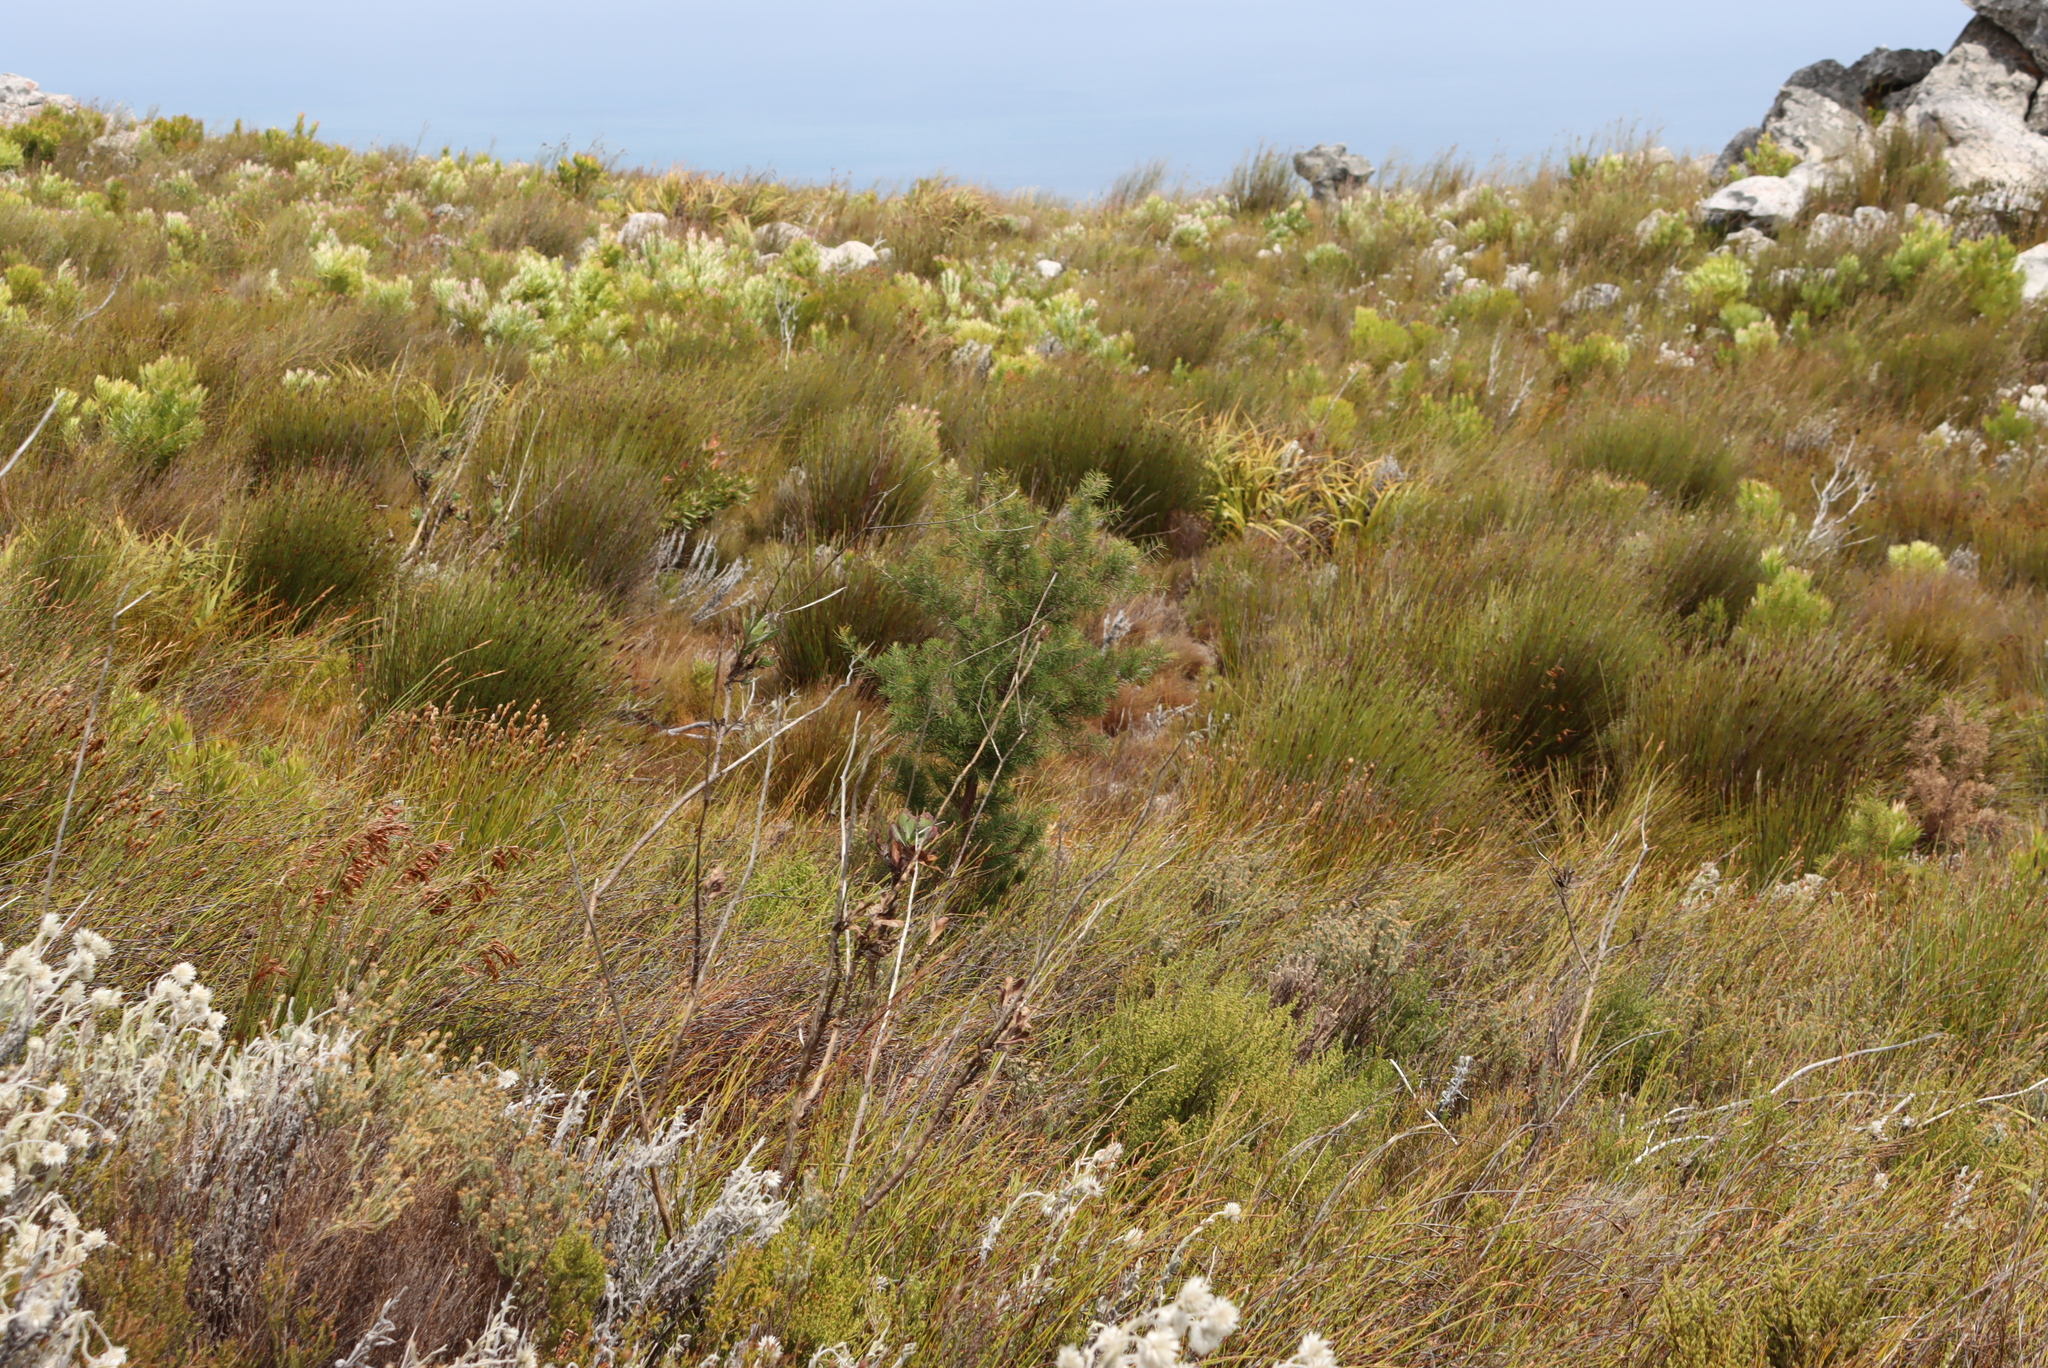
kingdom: Plantae
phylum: Tracheophyta
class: Magnoliopsida
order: Proteales
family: Proteaceae
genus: Hakea
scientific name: Hakea sericea
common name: Needle bush
